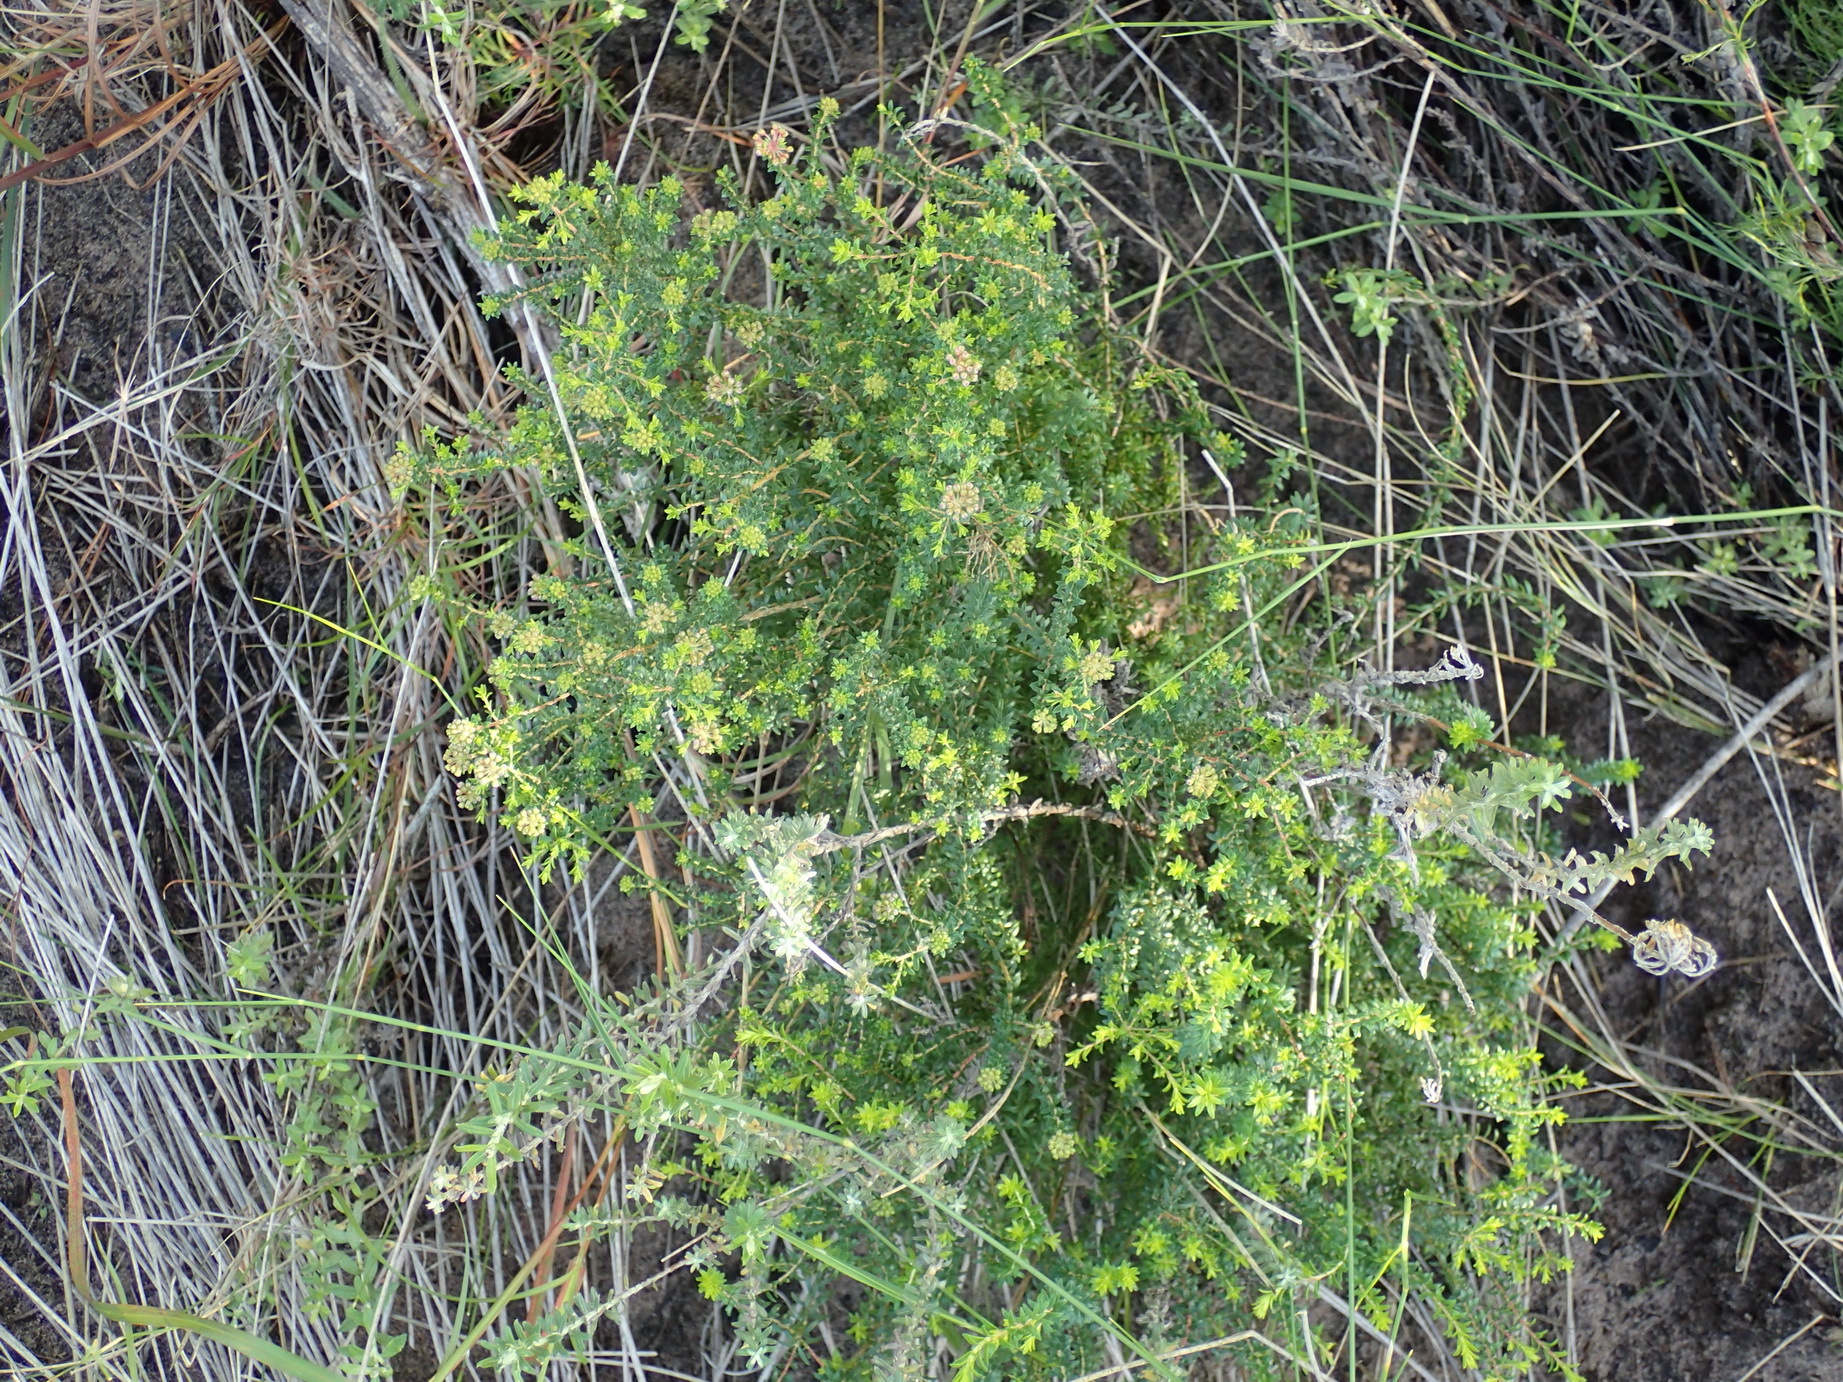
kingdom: Plantae
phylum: Tracheophyta
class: Magnoliopsida
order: Sapindales
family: Rutaceae
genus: Agathosma
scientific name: Agathosma capensis
